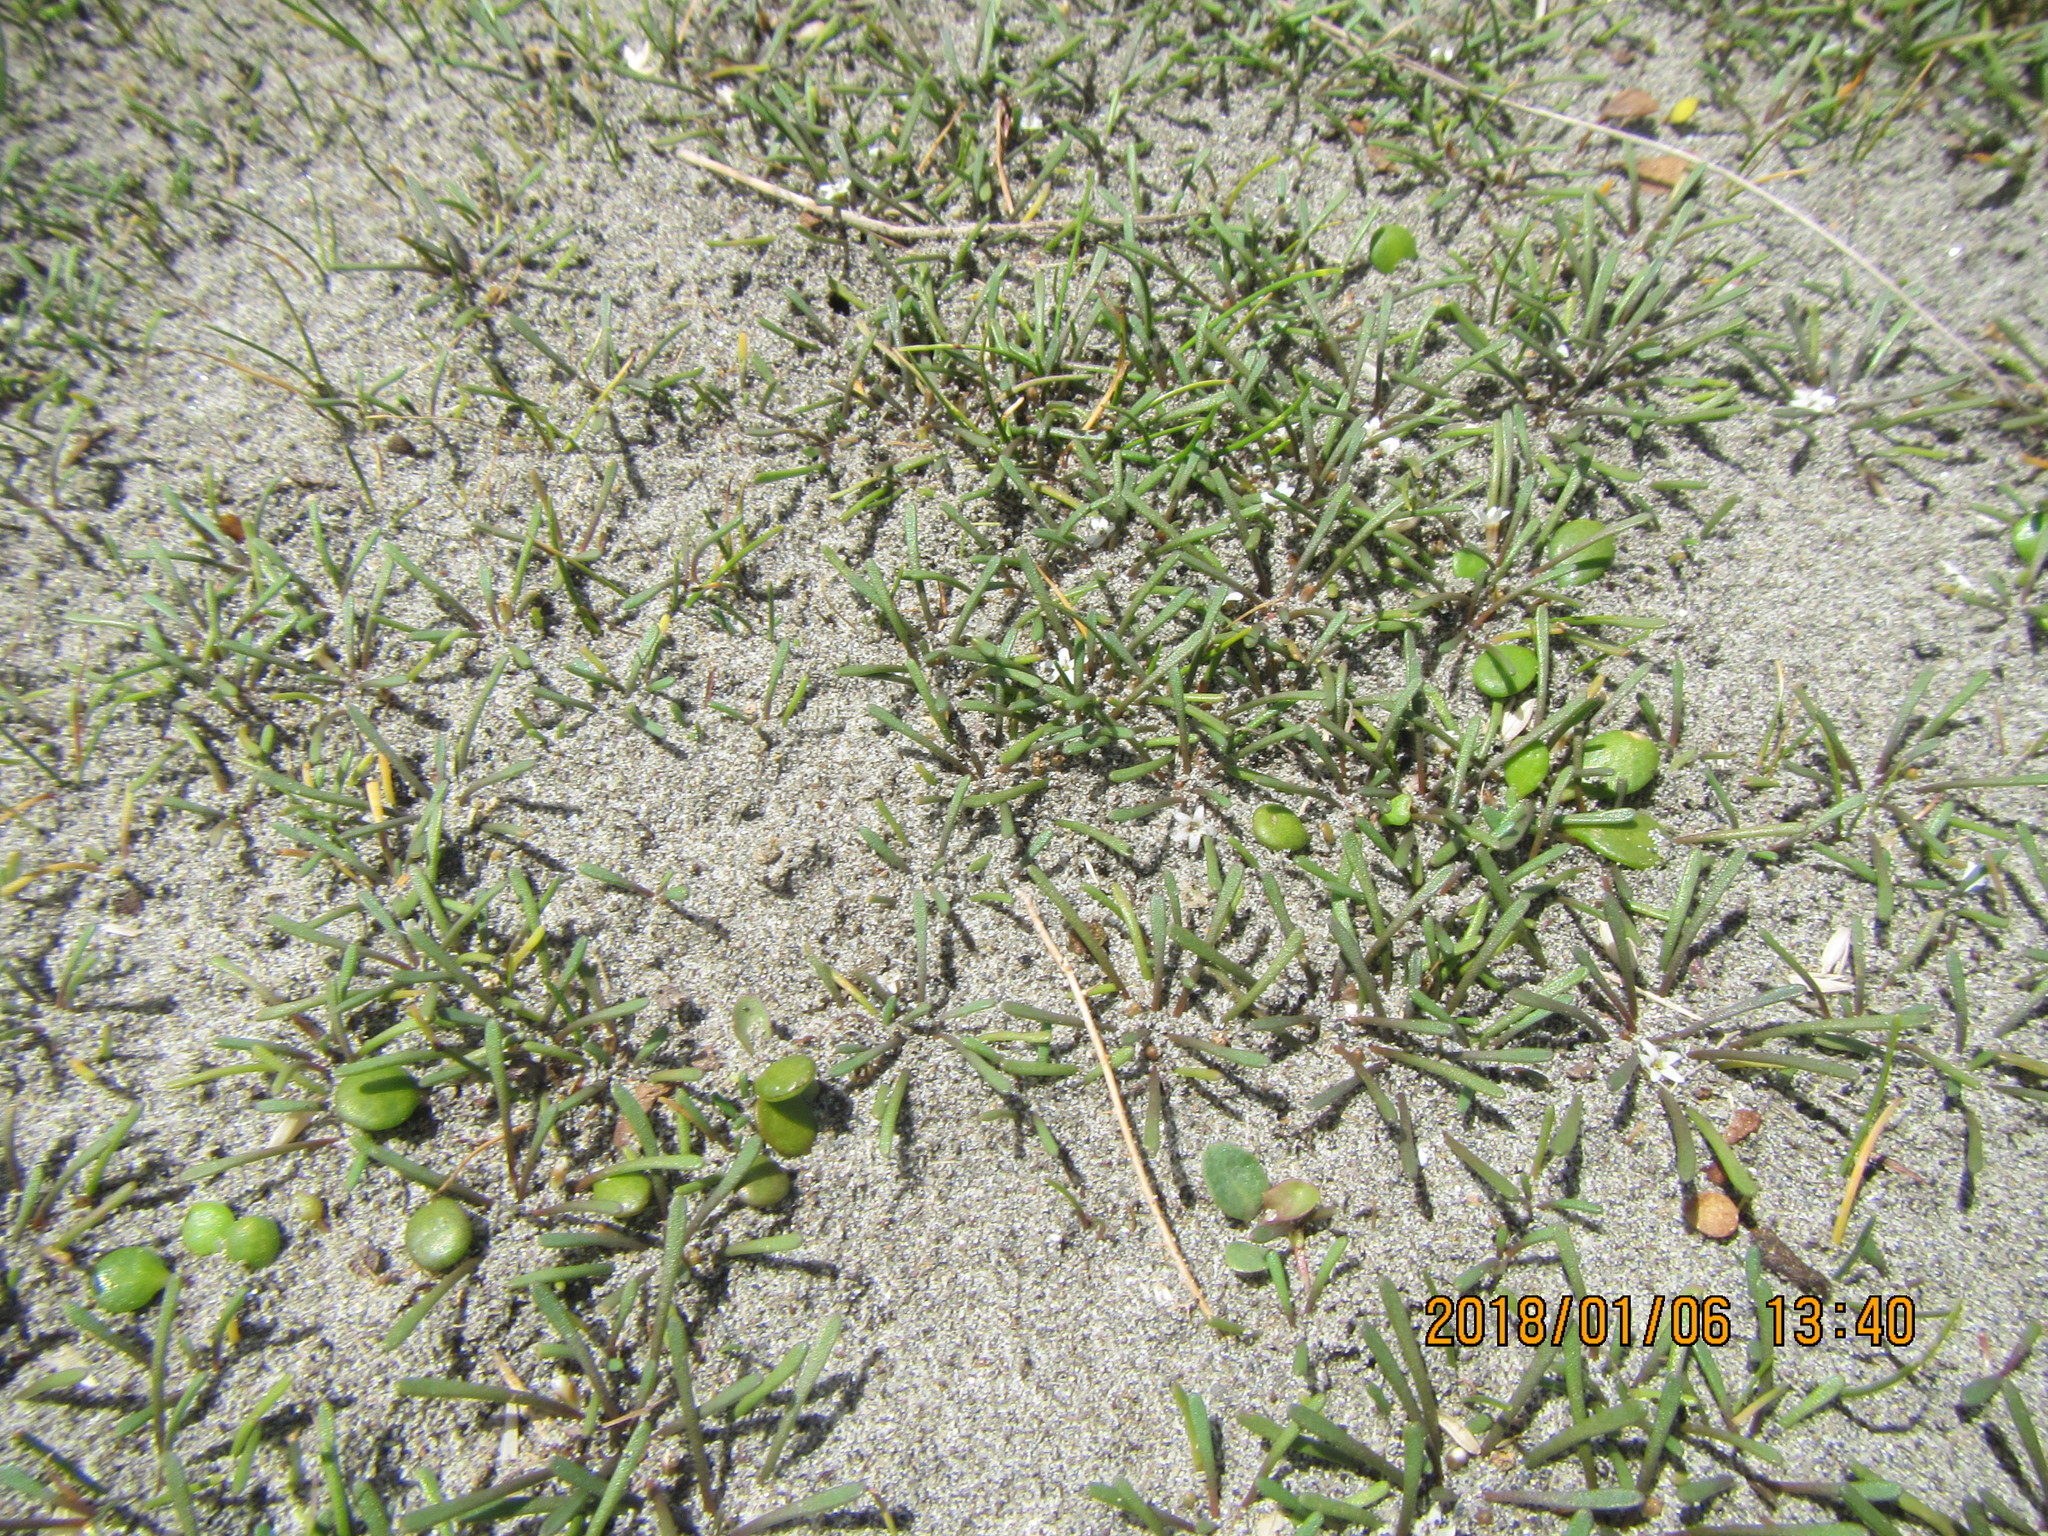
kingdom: Plantae
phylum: Tracheophyta
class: Magnoliopsida
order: Lamiales
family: Scrophulariaceae
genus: Limosella
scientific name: Limosella australis
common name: Welsh mudwort
